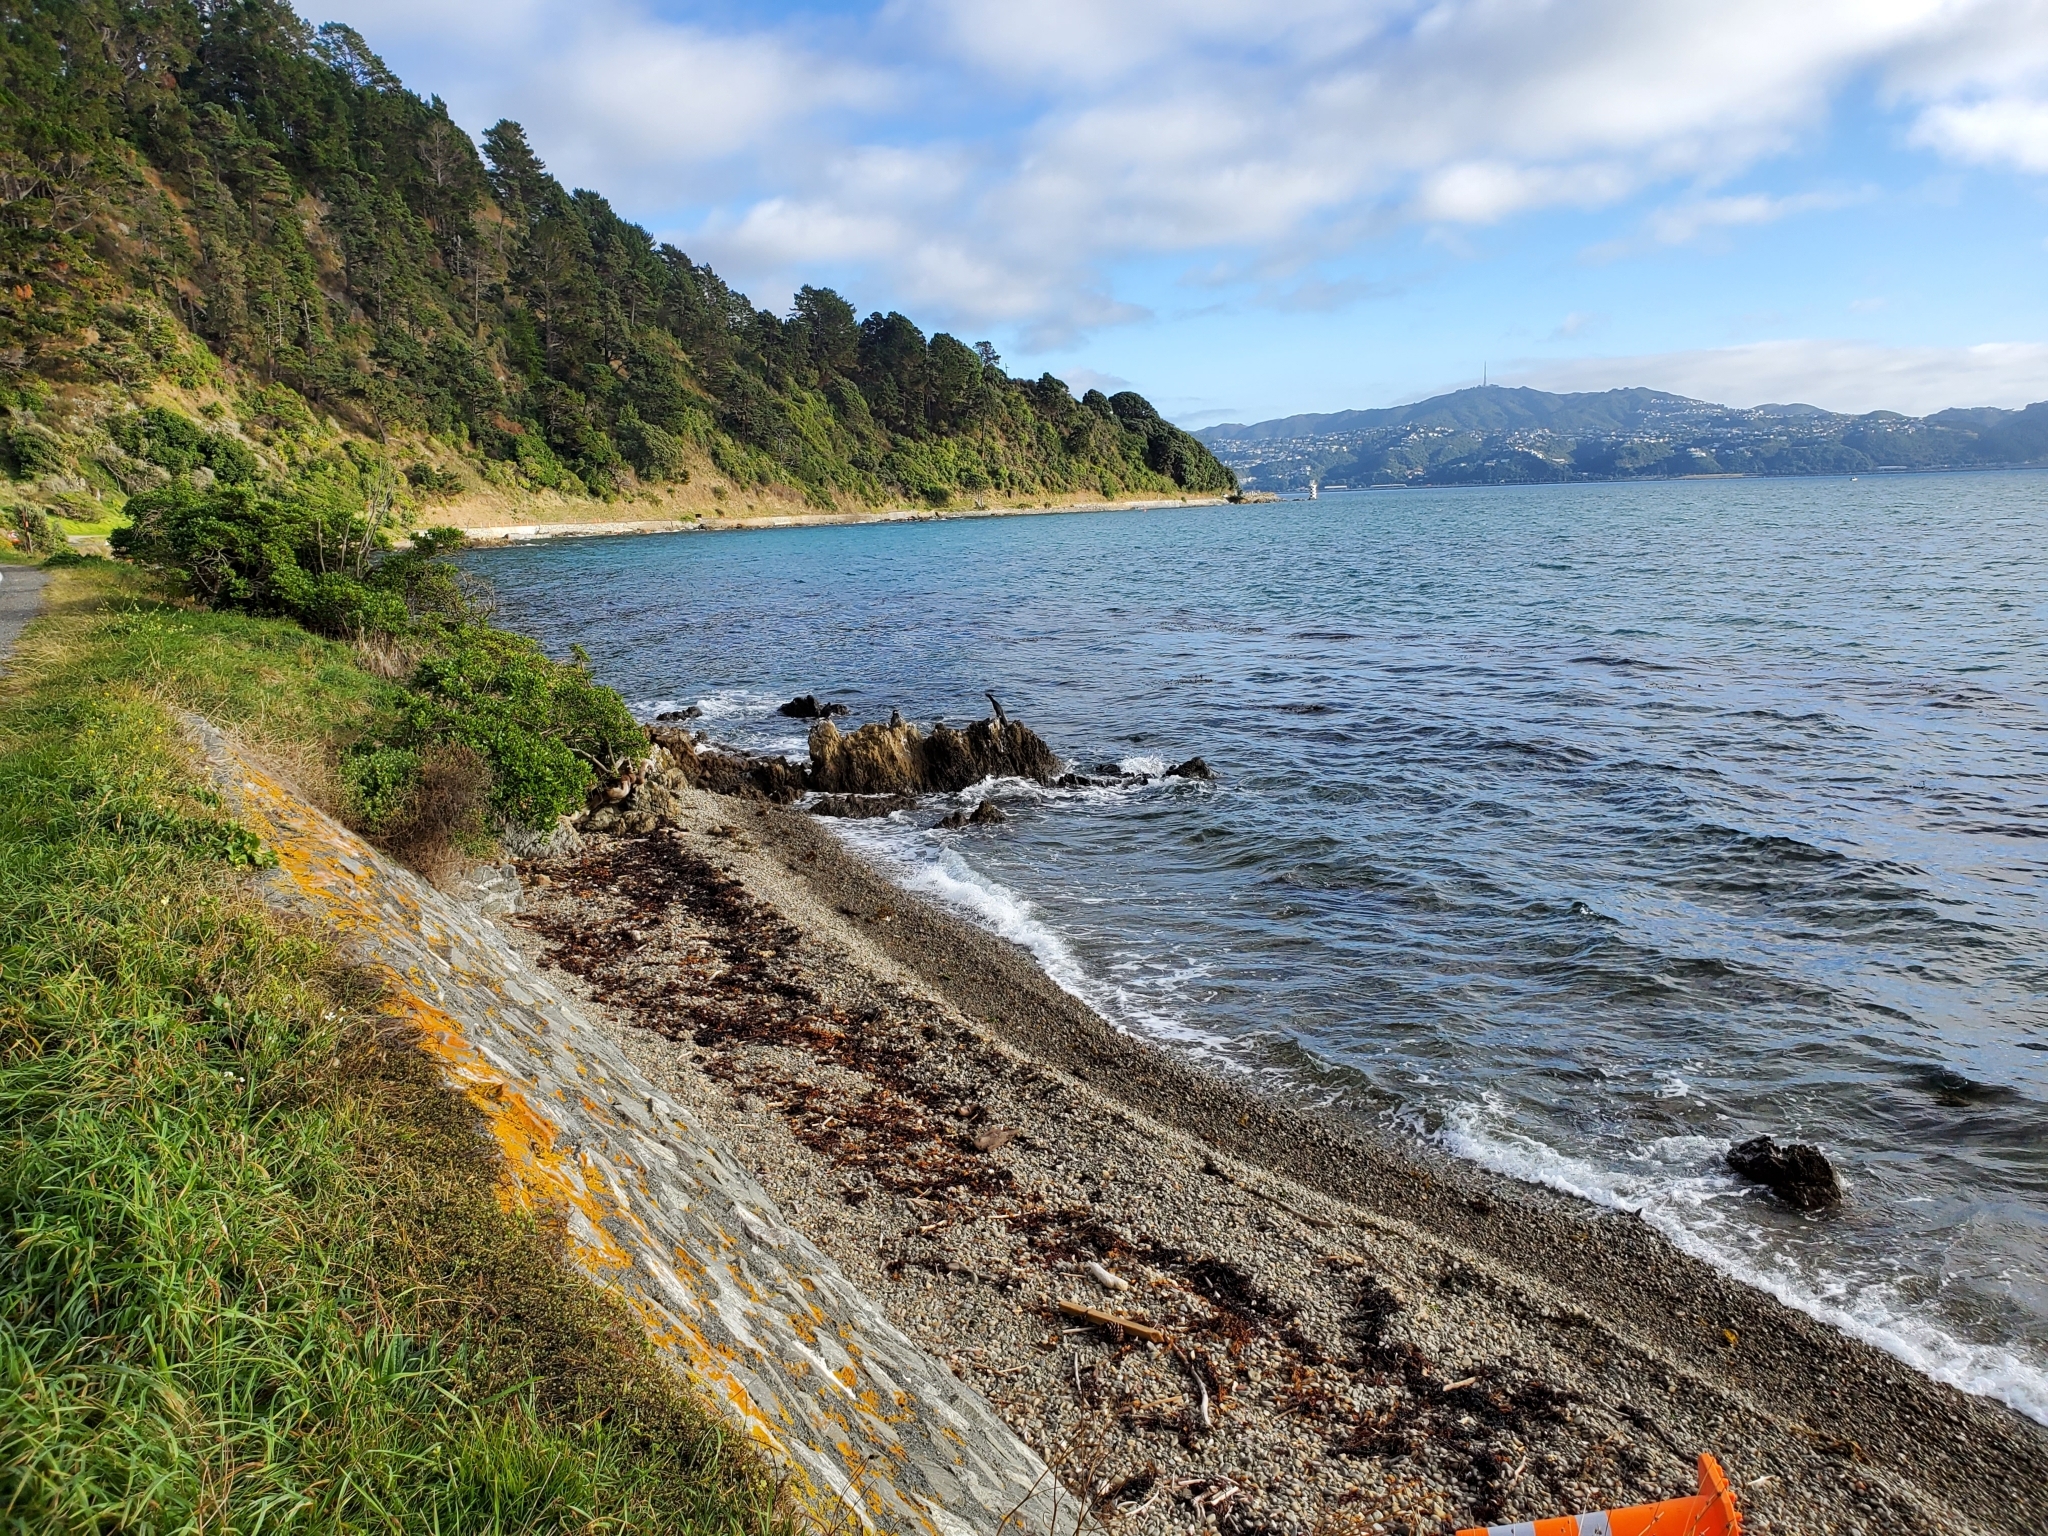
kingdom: Animalia
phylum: Chordata
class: Aves
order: Suliformes
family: Phalacrocoracidae
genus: Phalacrocorax
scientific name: Phalacrocorax sulcirostris
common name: Little black cormorant
